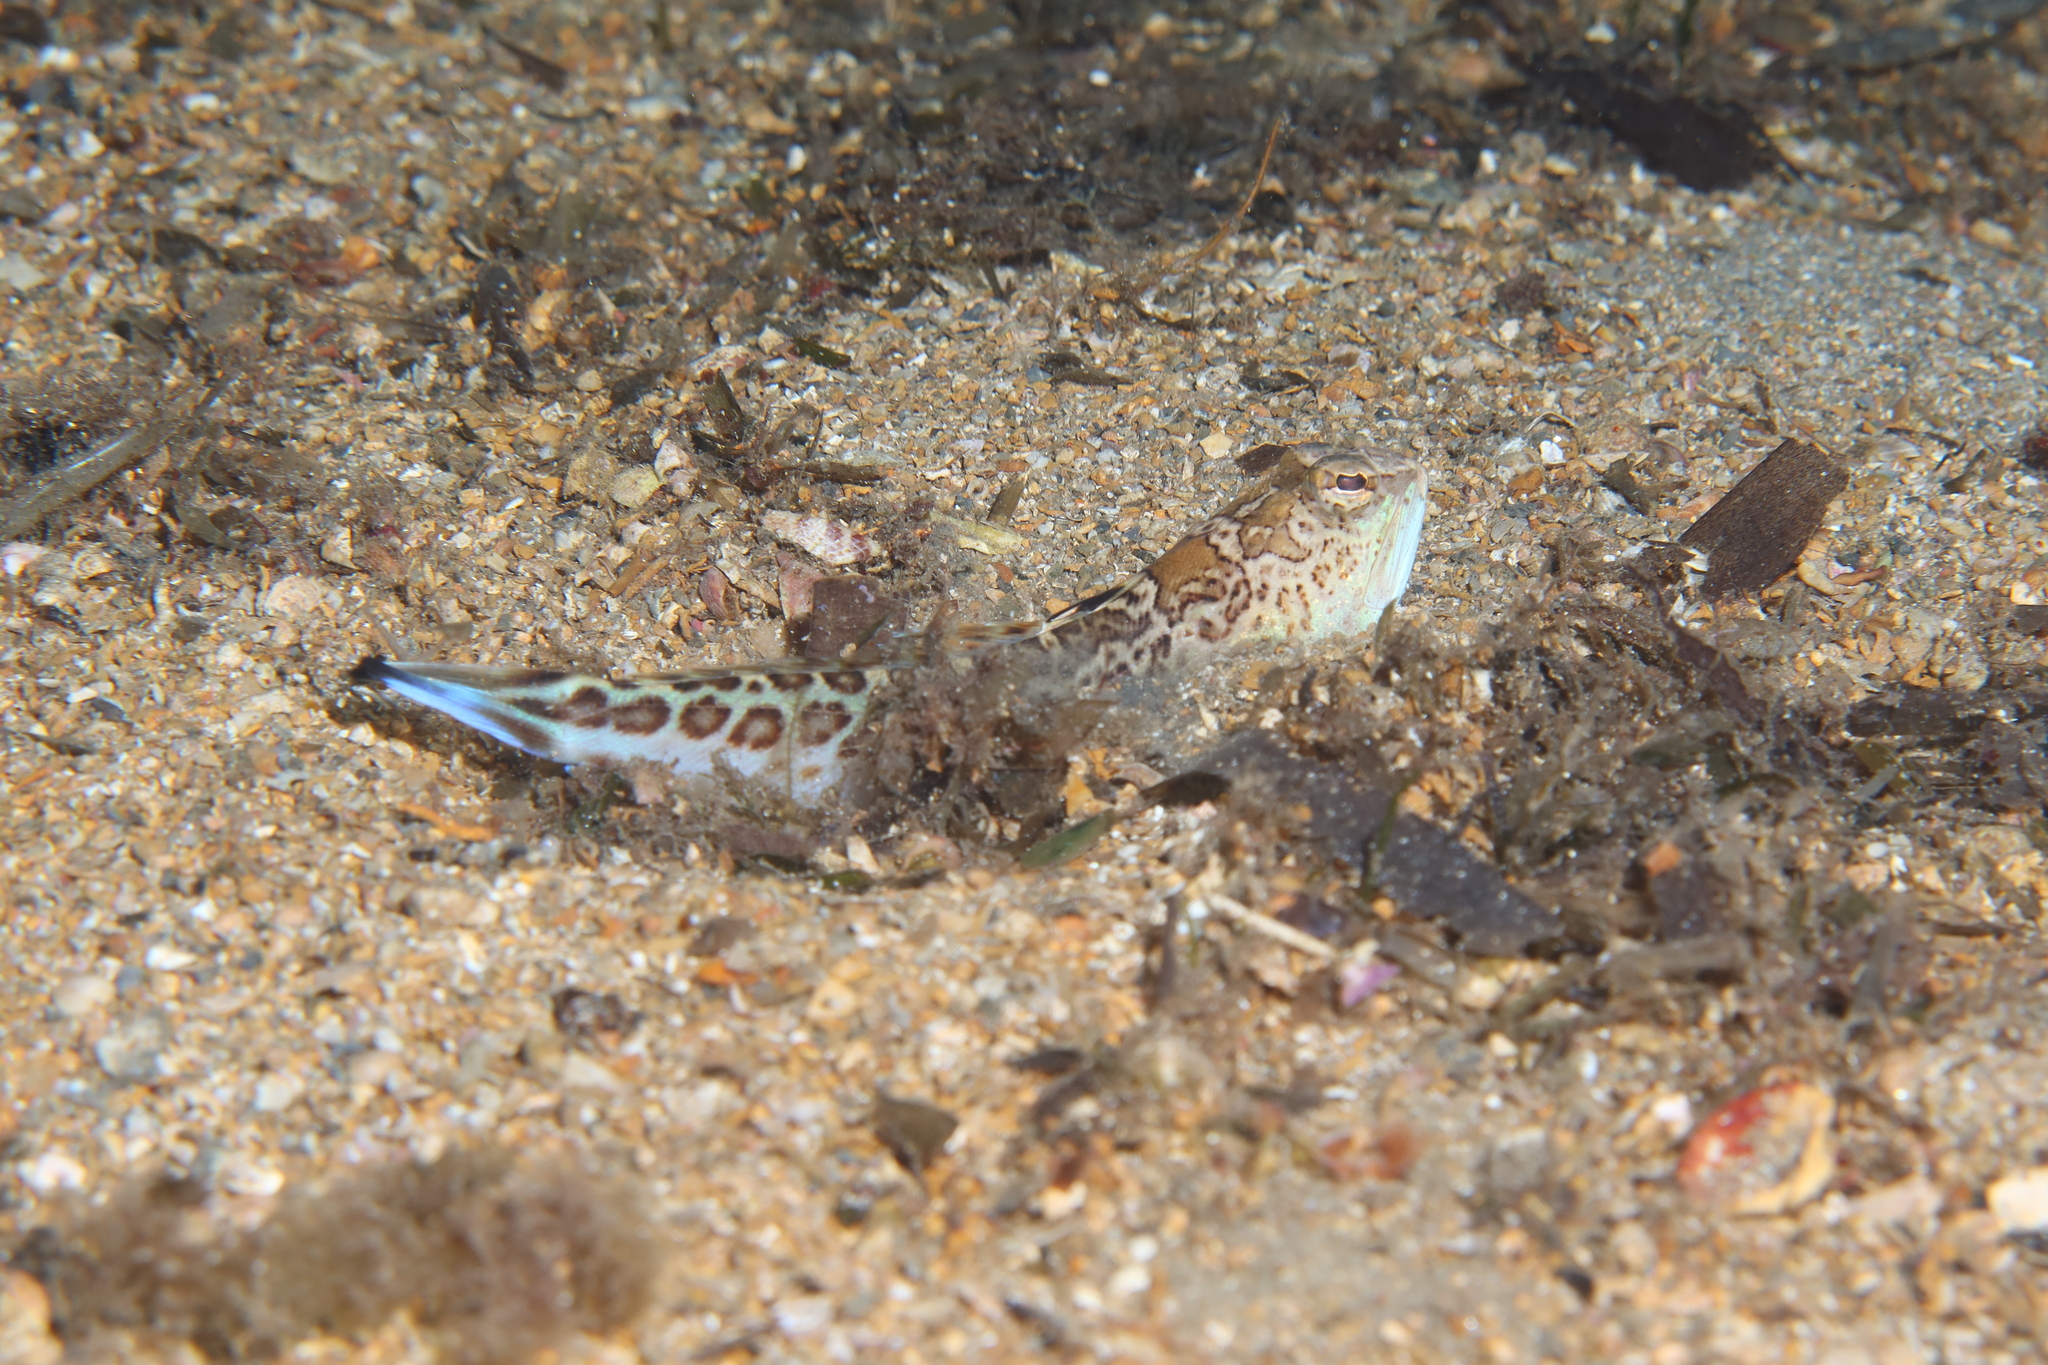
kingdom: Animalia
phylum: Chordata
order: Perciformes
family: Trachinidae
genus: Trachinus
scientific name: Trachinus radiatus
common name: Starry weever
